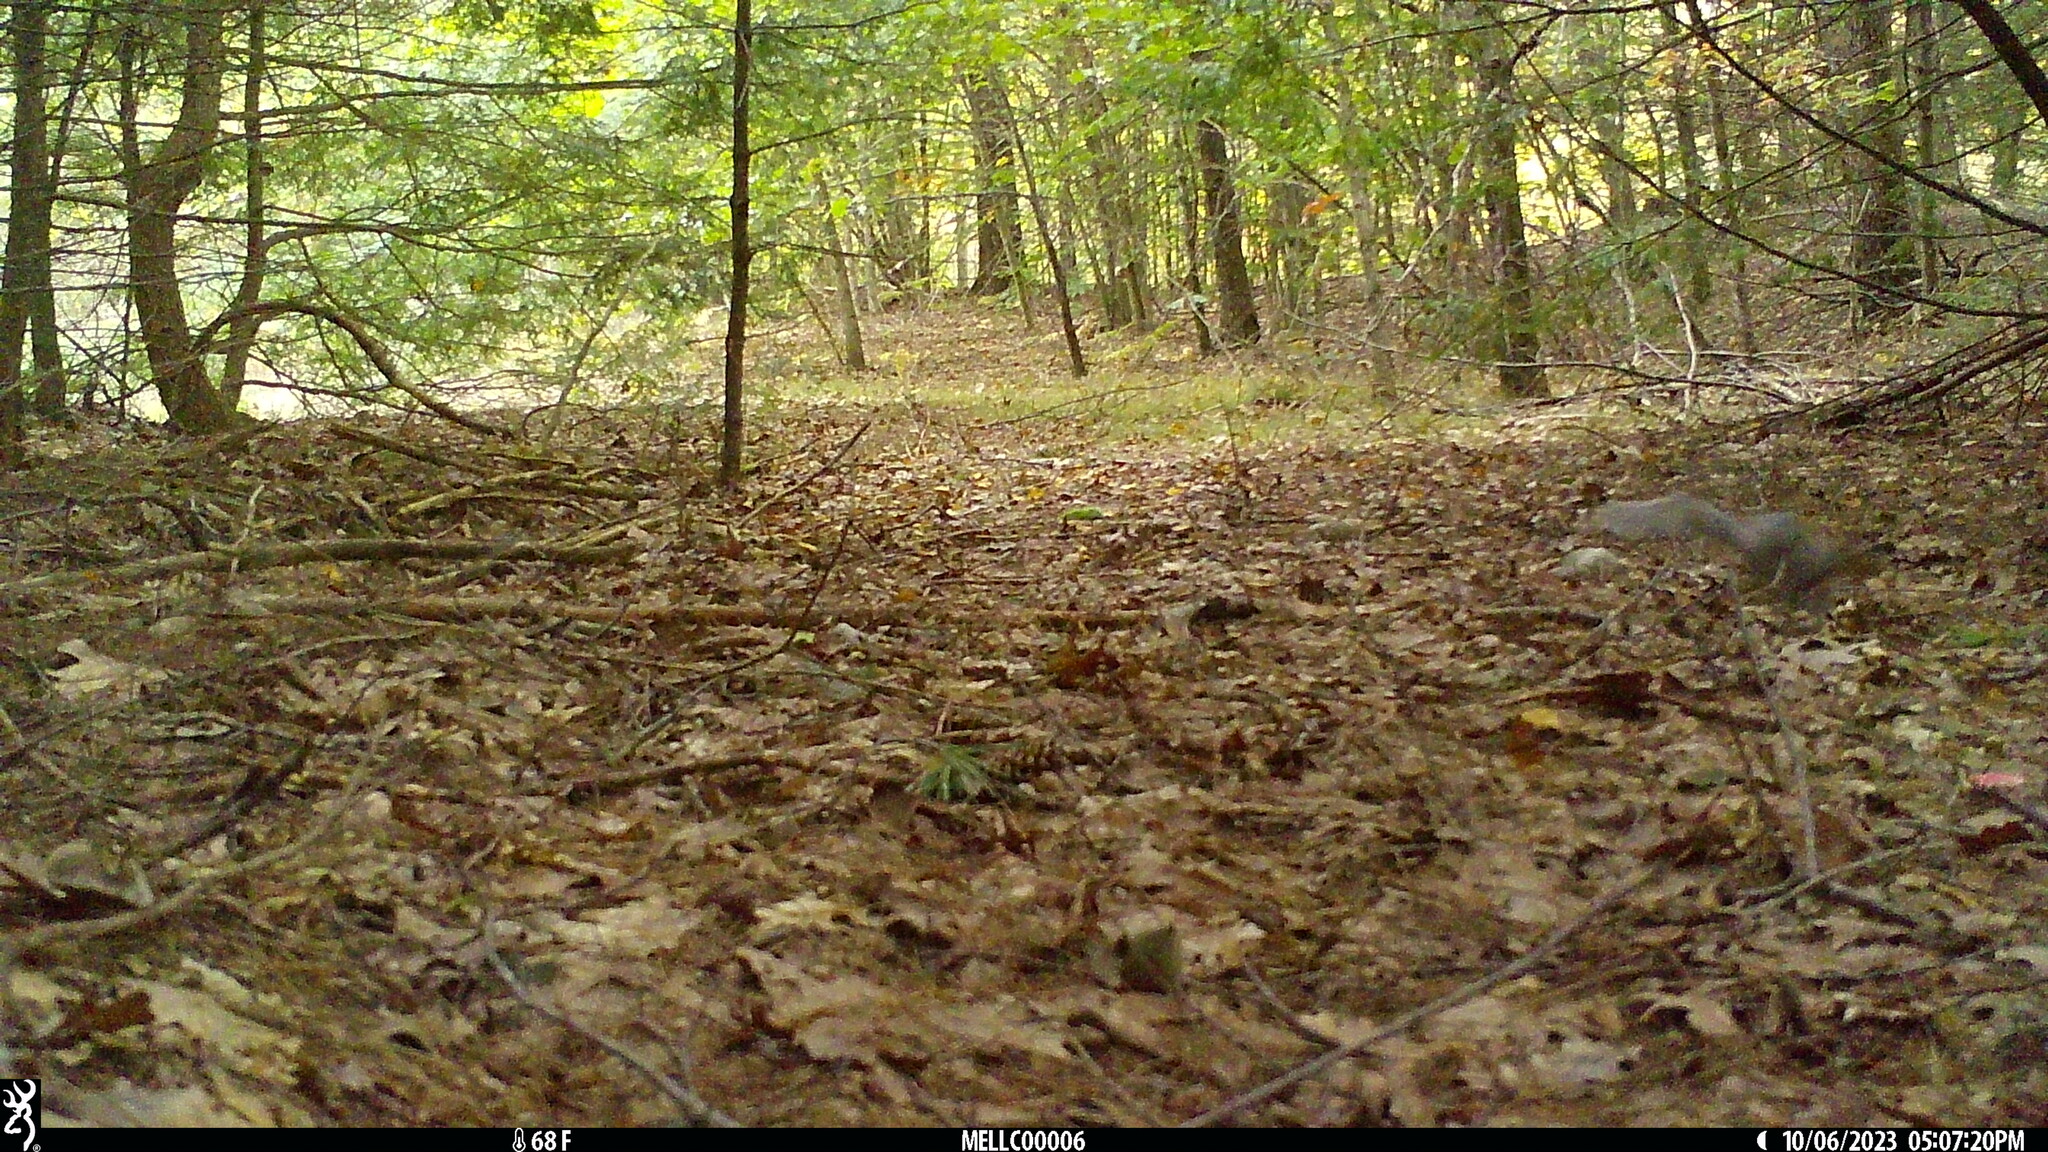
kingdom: Animalia
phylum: Chordata
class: Mammalia
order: Rodentia
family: Sciuridae
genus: Sciurus
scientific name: Sciurus carolinensis
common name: Eastern gray squirrel
